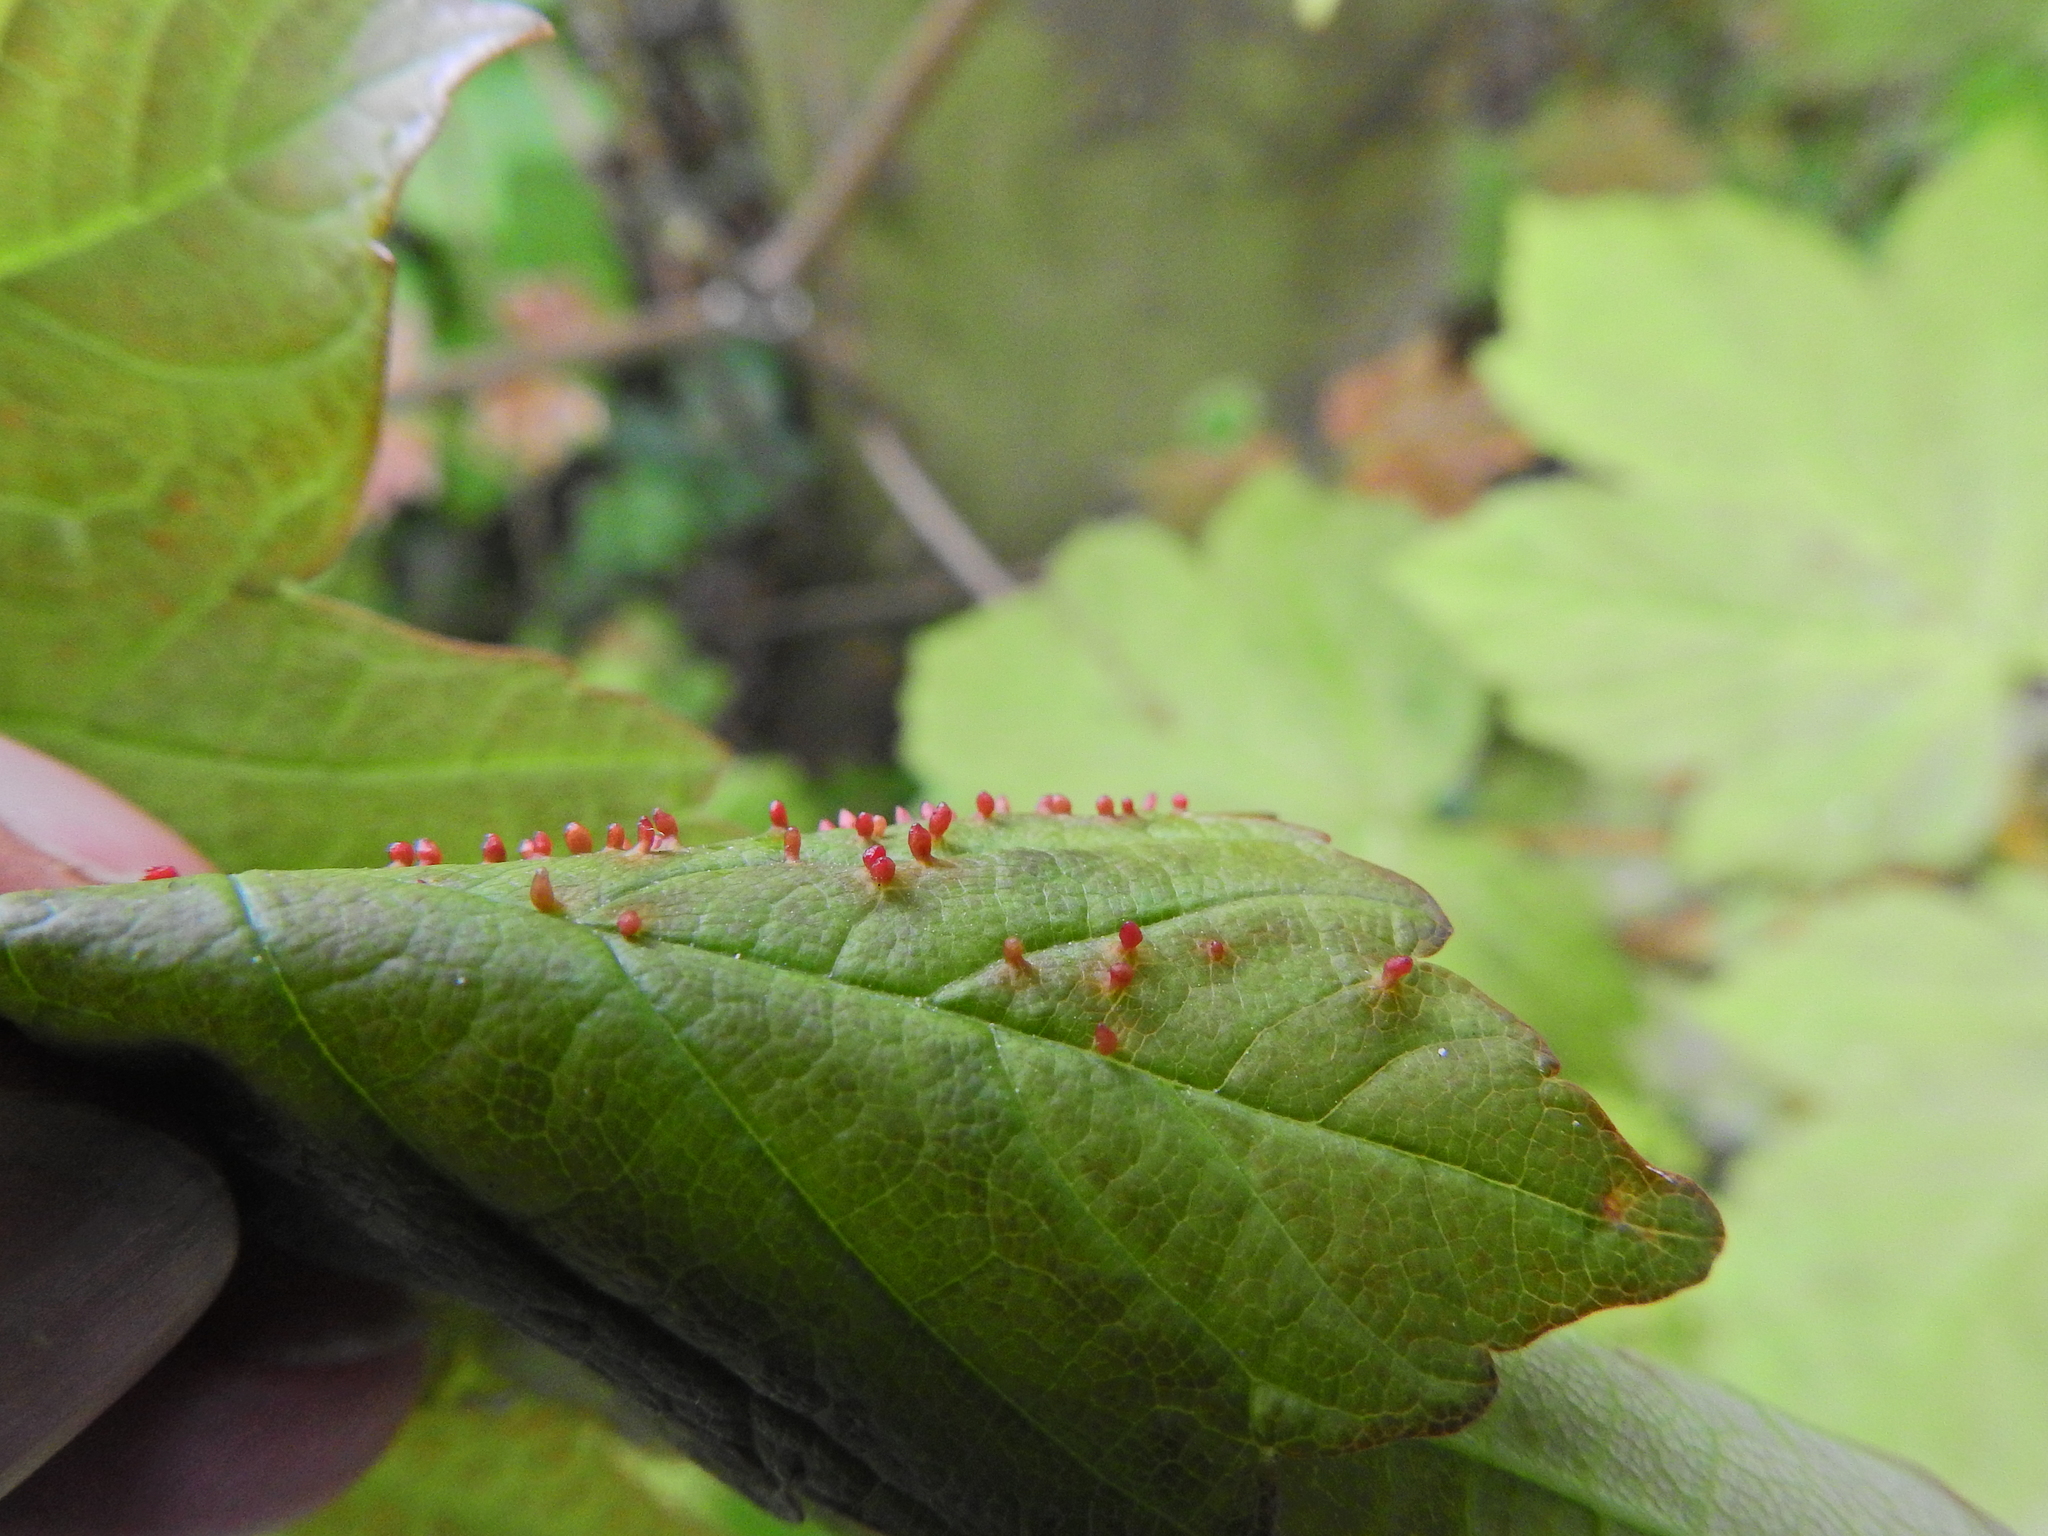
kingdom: Animalia
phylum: Arthropoda
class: Arachnida
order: Trombidiformes
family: Eriophyidae
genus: Aceria
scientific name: Aceria cephaloneus
